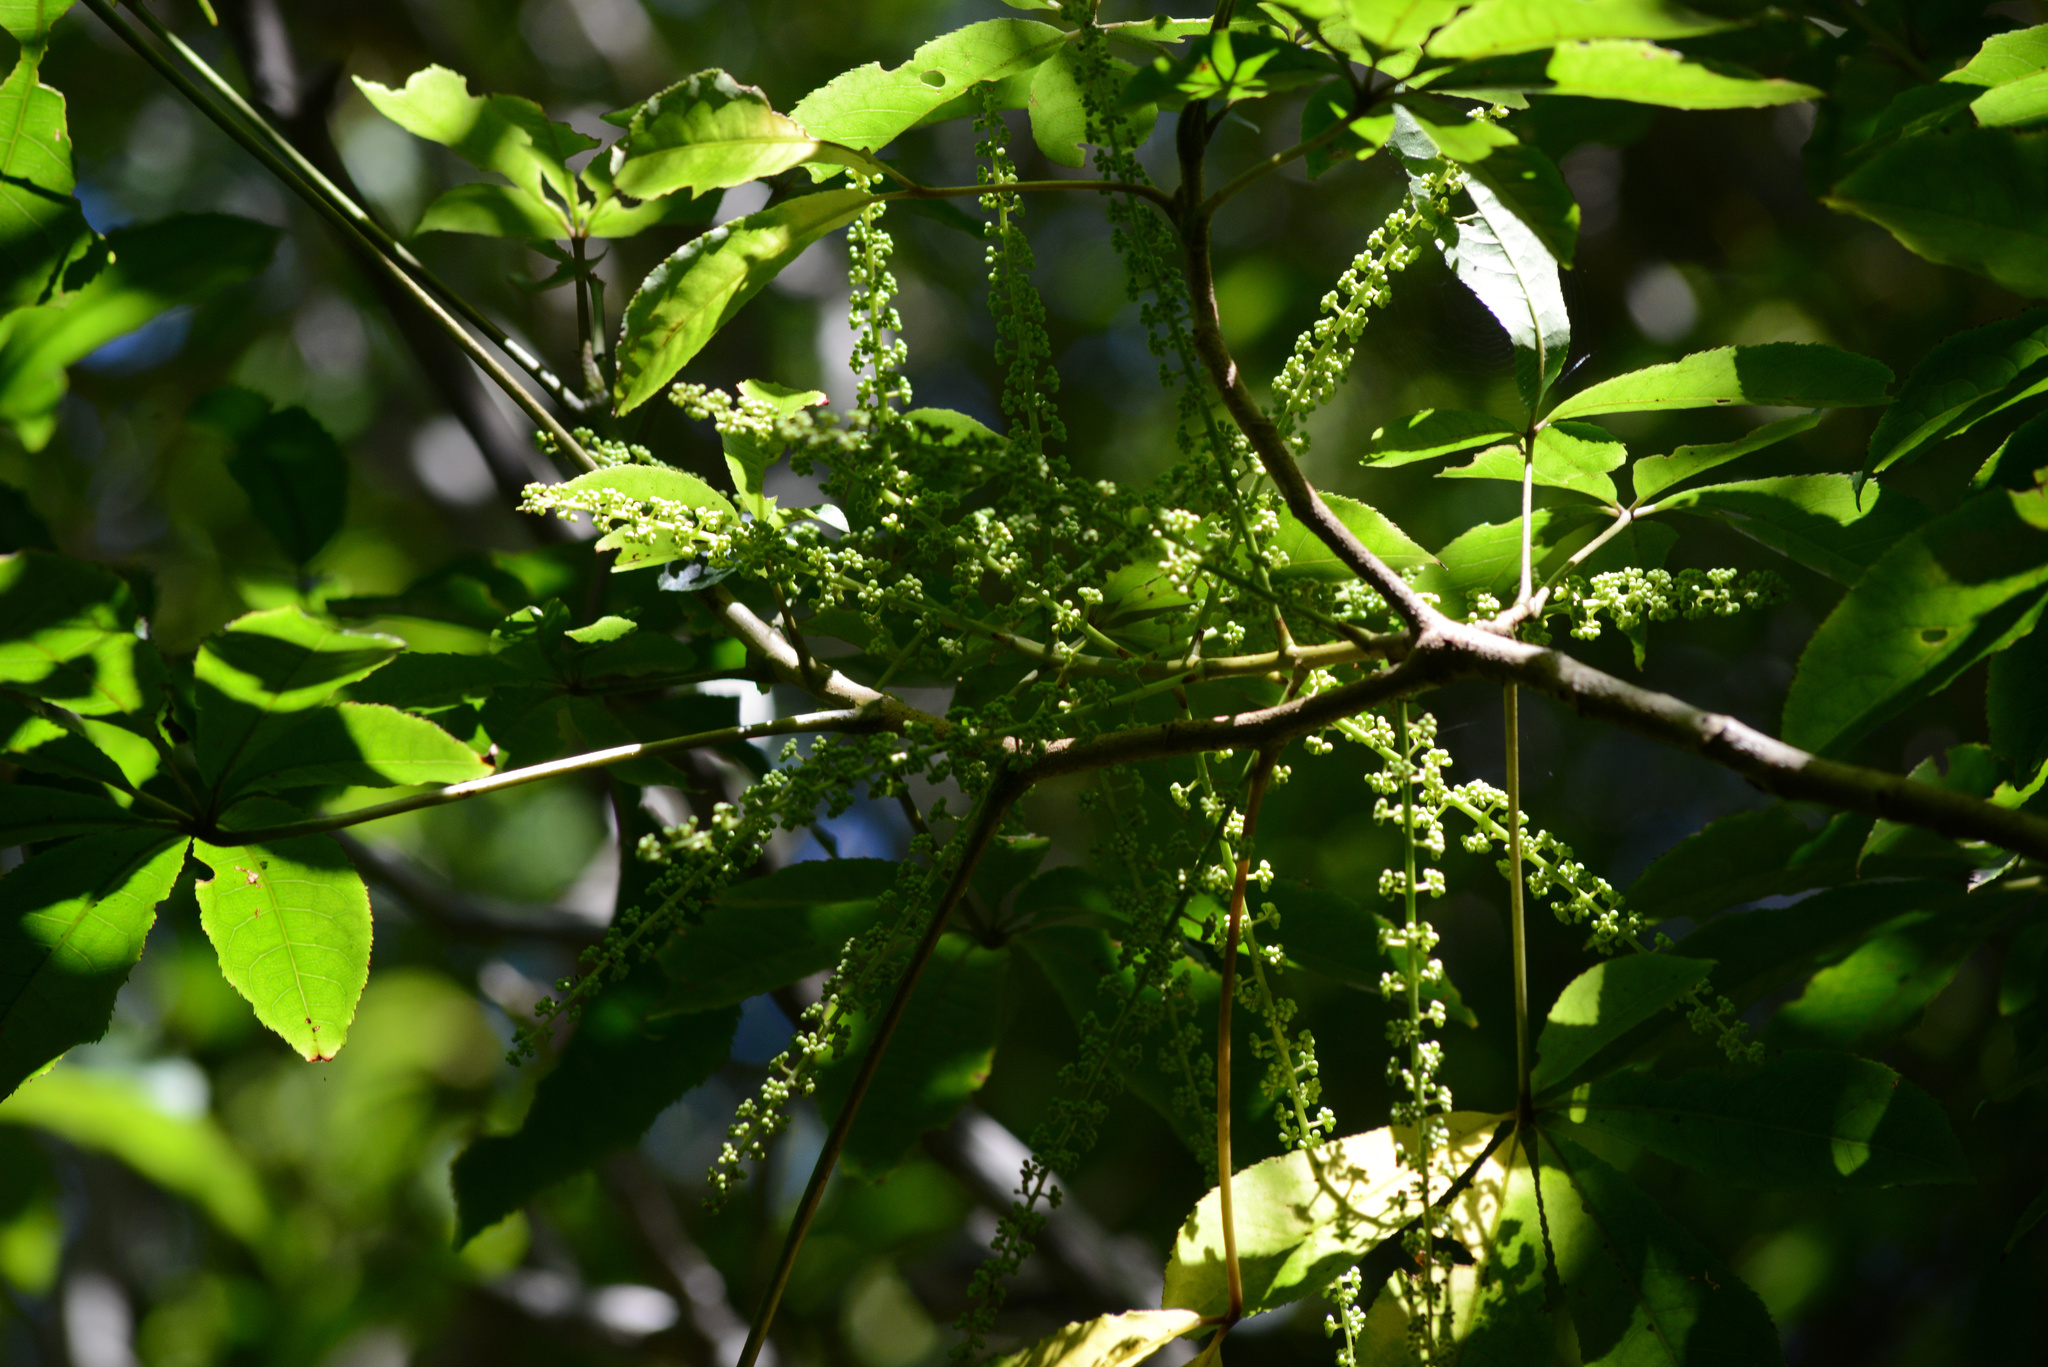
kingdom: Plantae
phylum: Tracheophyta
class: Magnoliopsida
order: Apiales
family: Araliaceae
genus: Schefflera
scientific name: Schefflera digitata
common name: Pate
